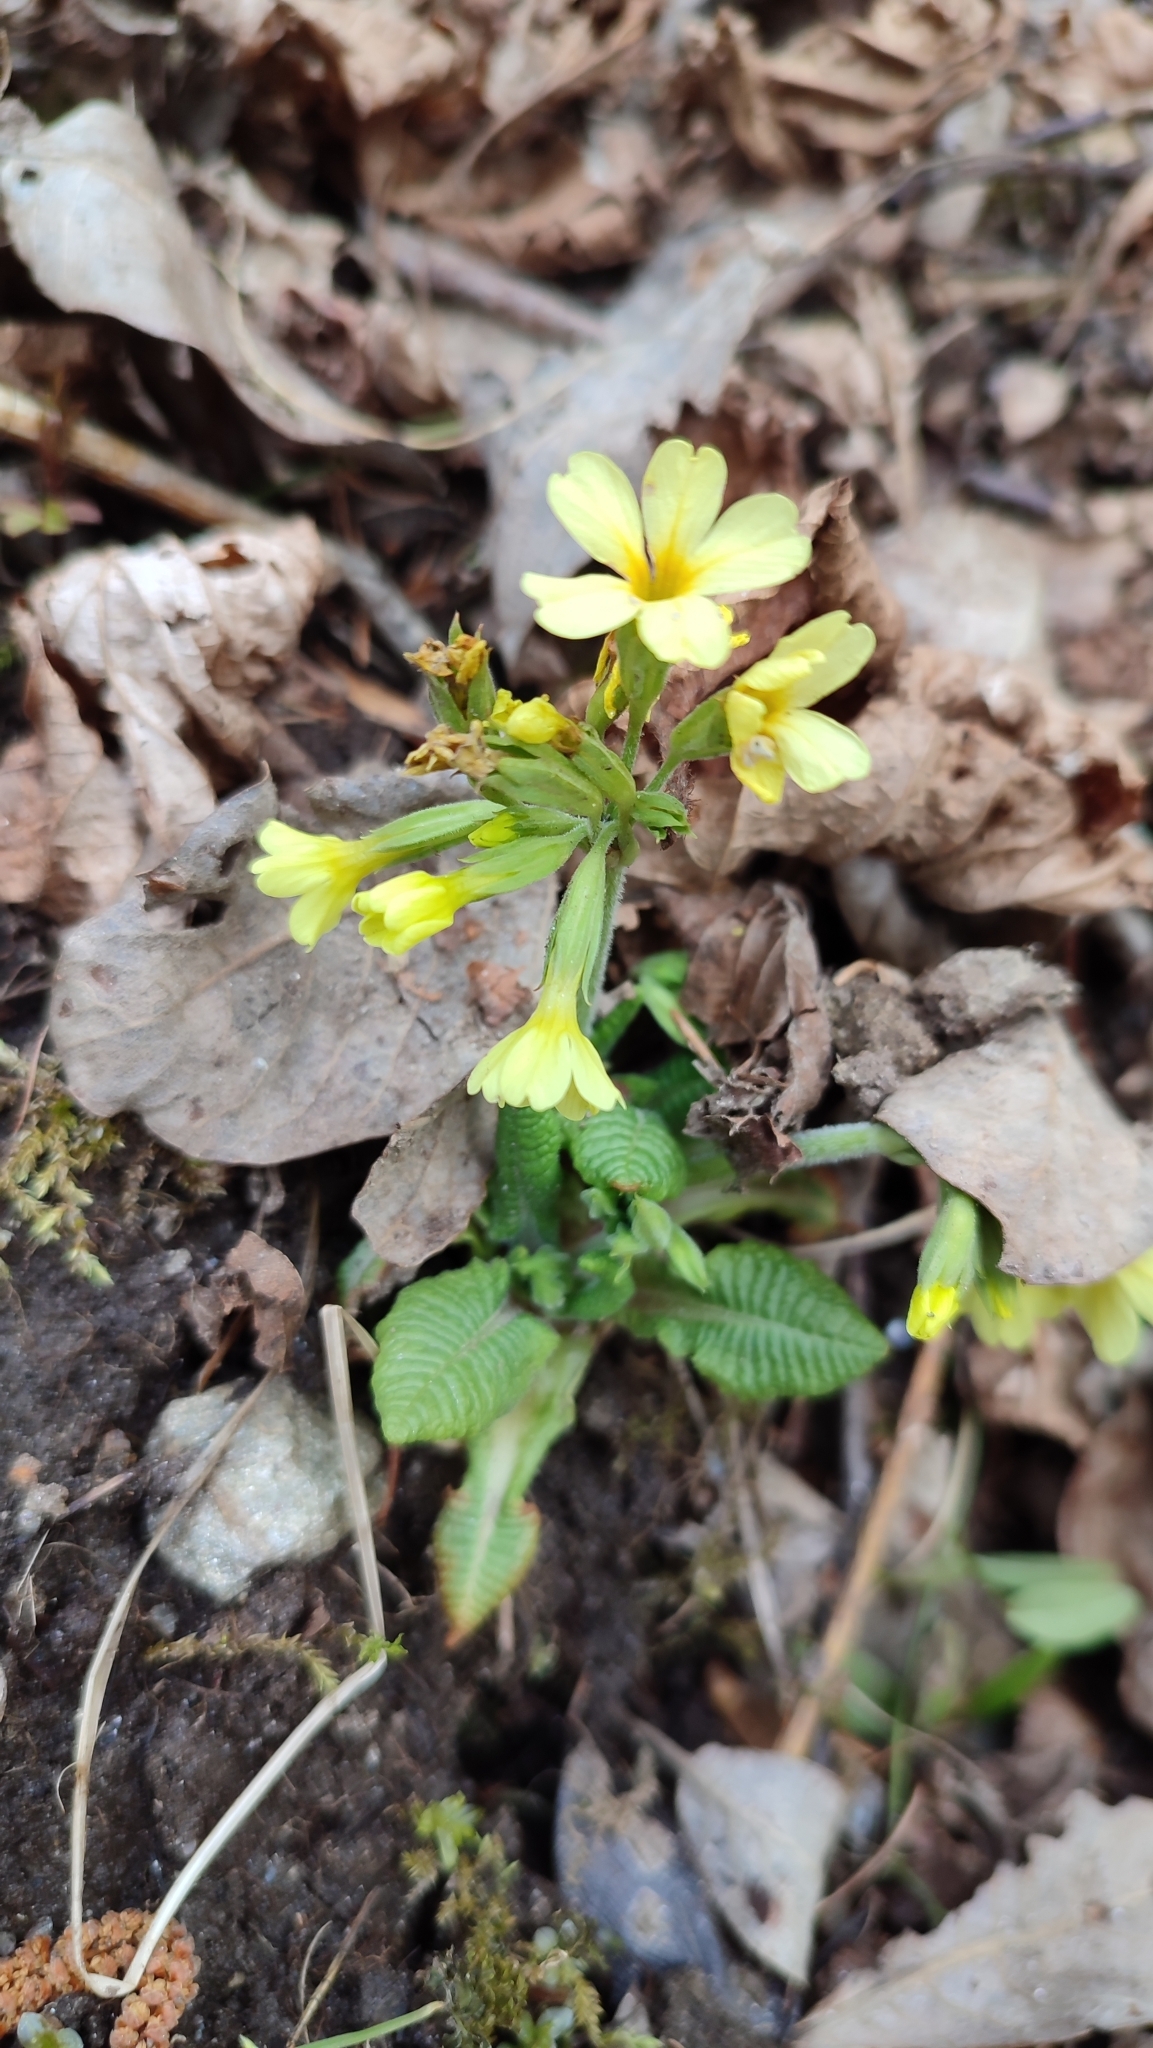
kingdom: Plantae
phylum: Tracheophyta
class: Magnoliopsida
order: Ericales
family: Primulaceae
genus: Primula
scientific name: Primula elatior
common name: Oxlip
